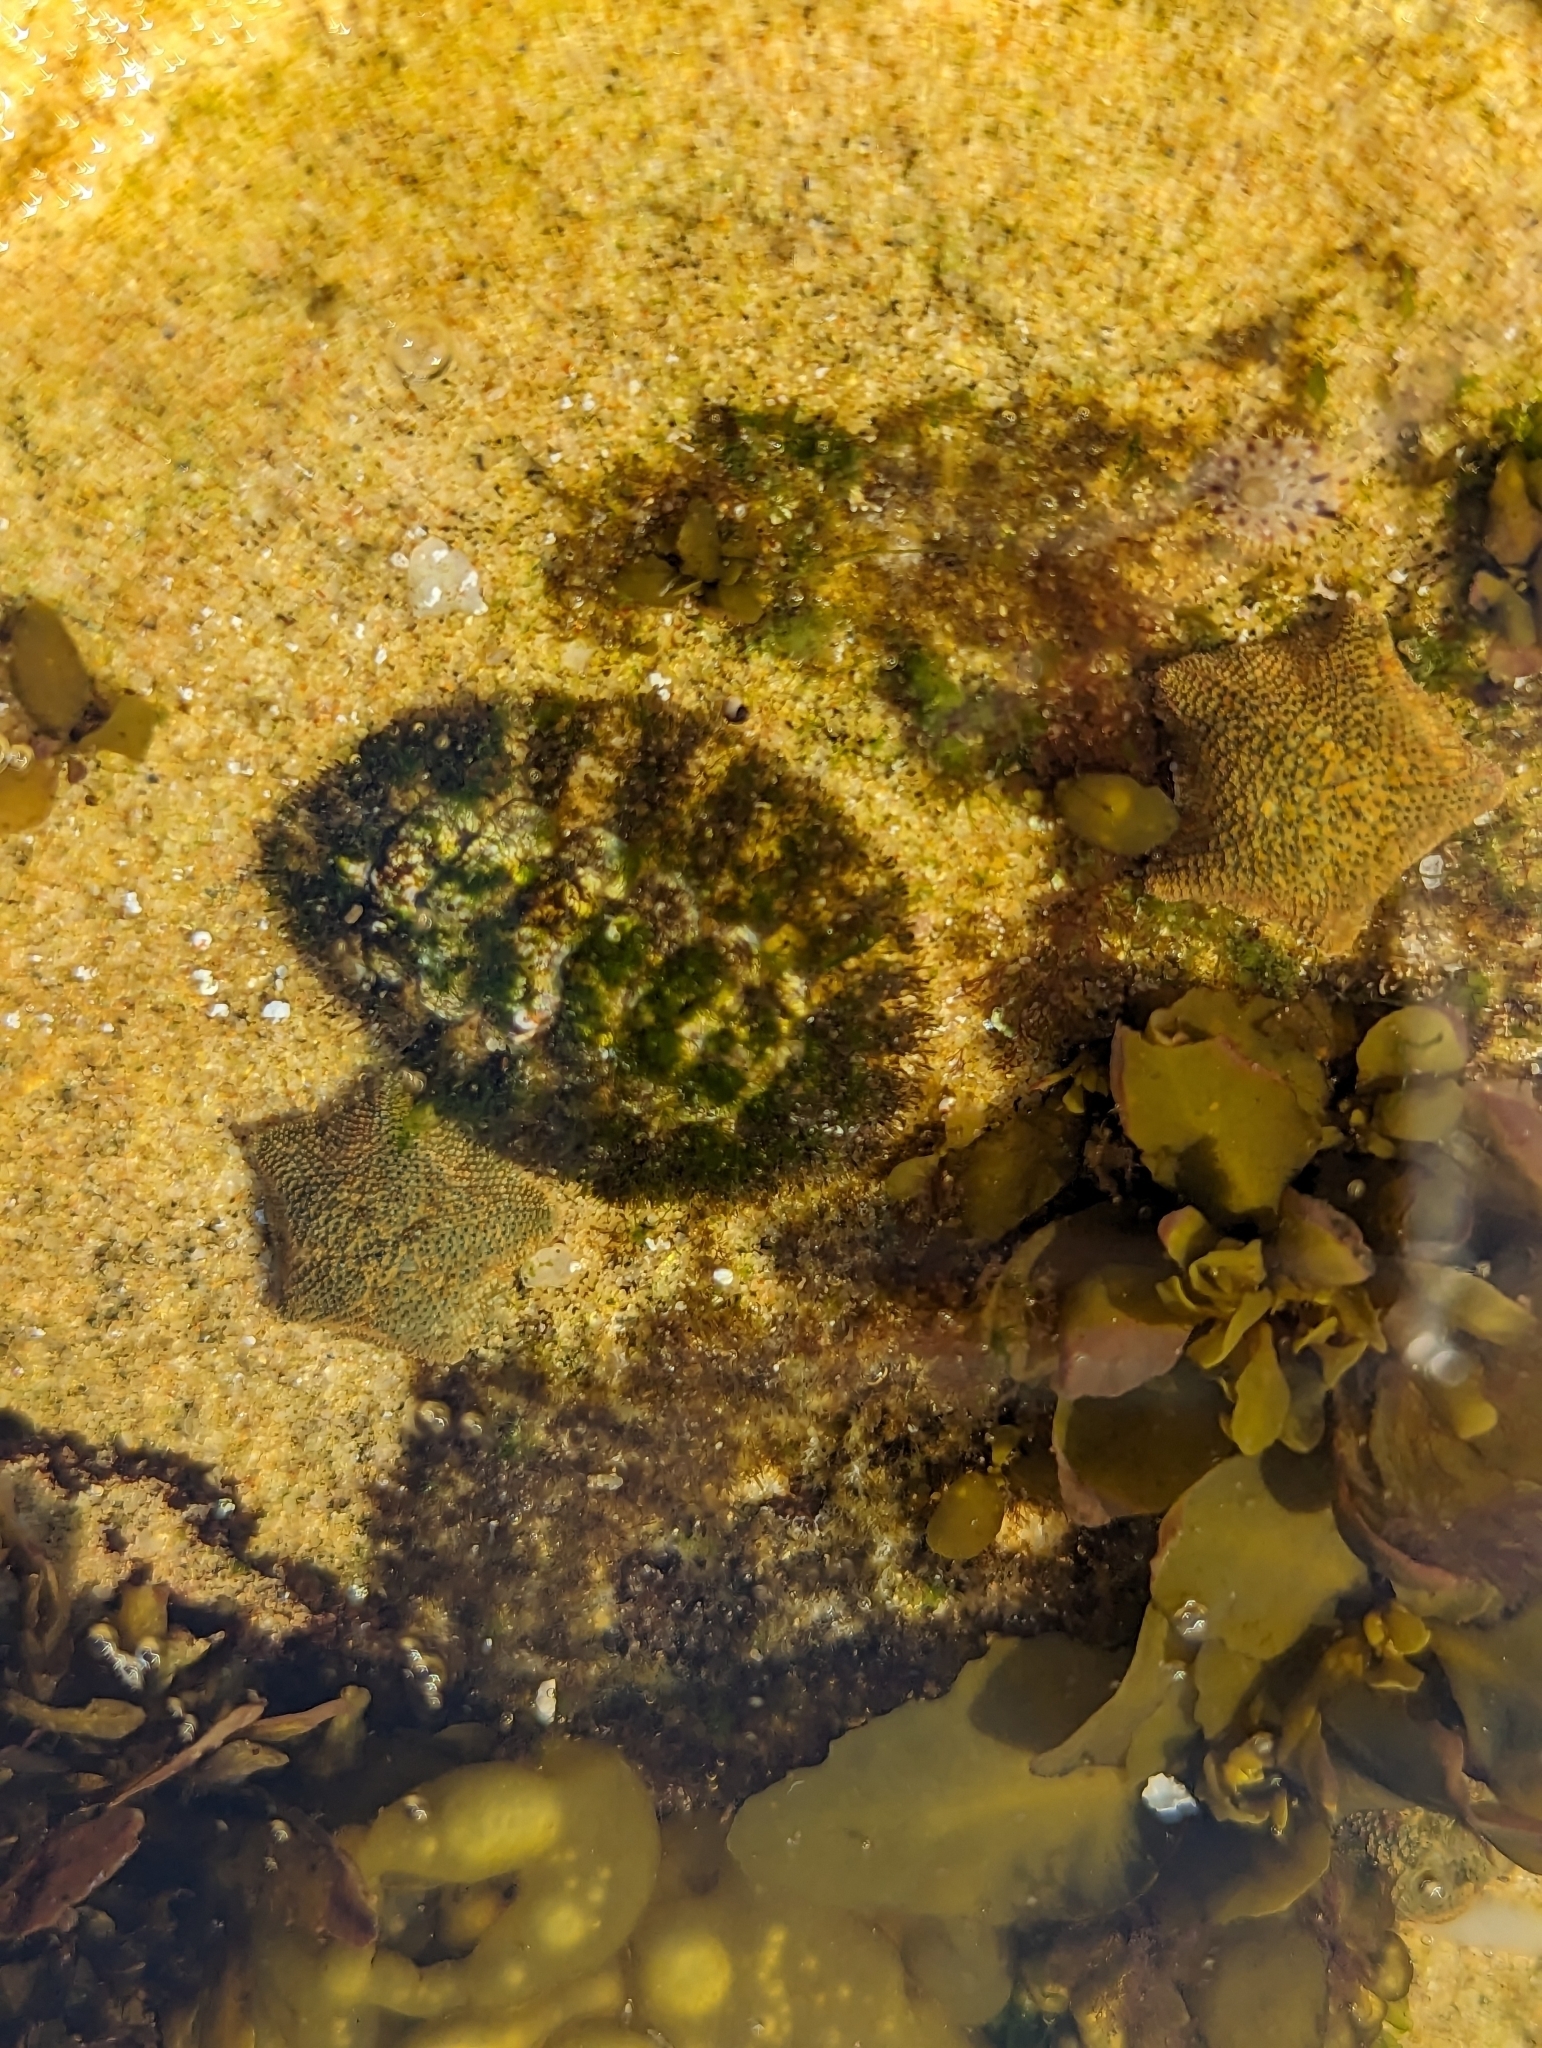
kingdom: Animalia
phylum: Mollusca
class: Polyplacophora
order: Chitonida
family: Mopaliidae
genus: Plaxiphora
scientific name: Plaxiphora albida
